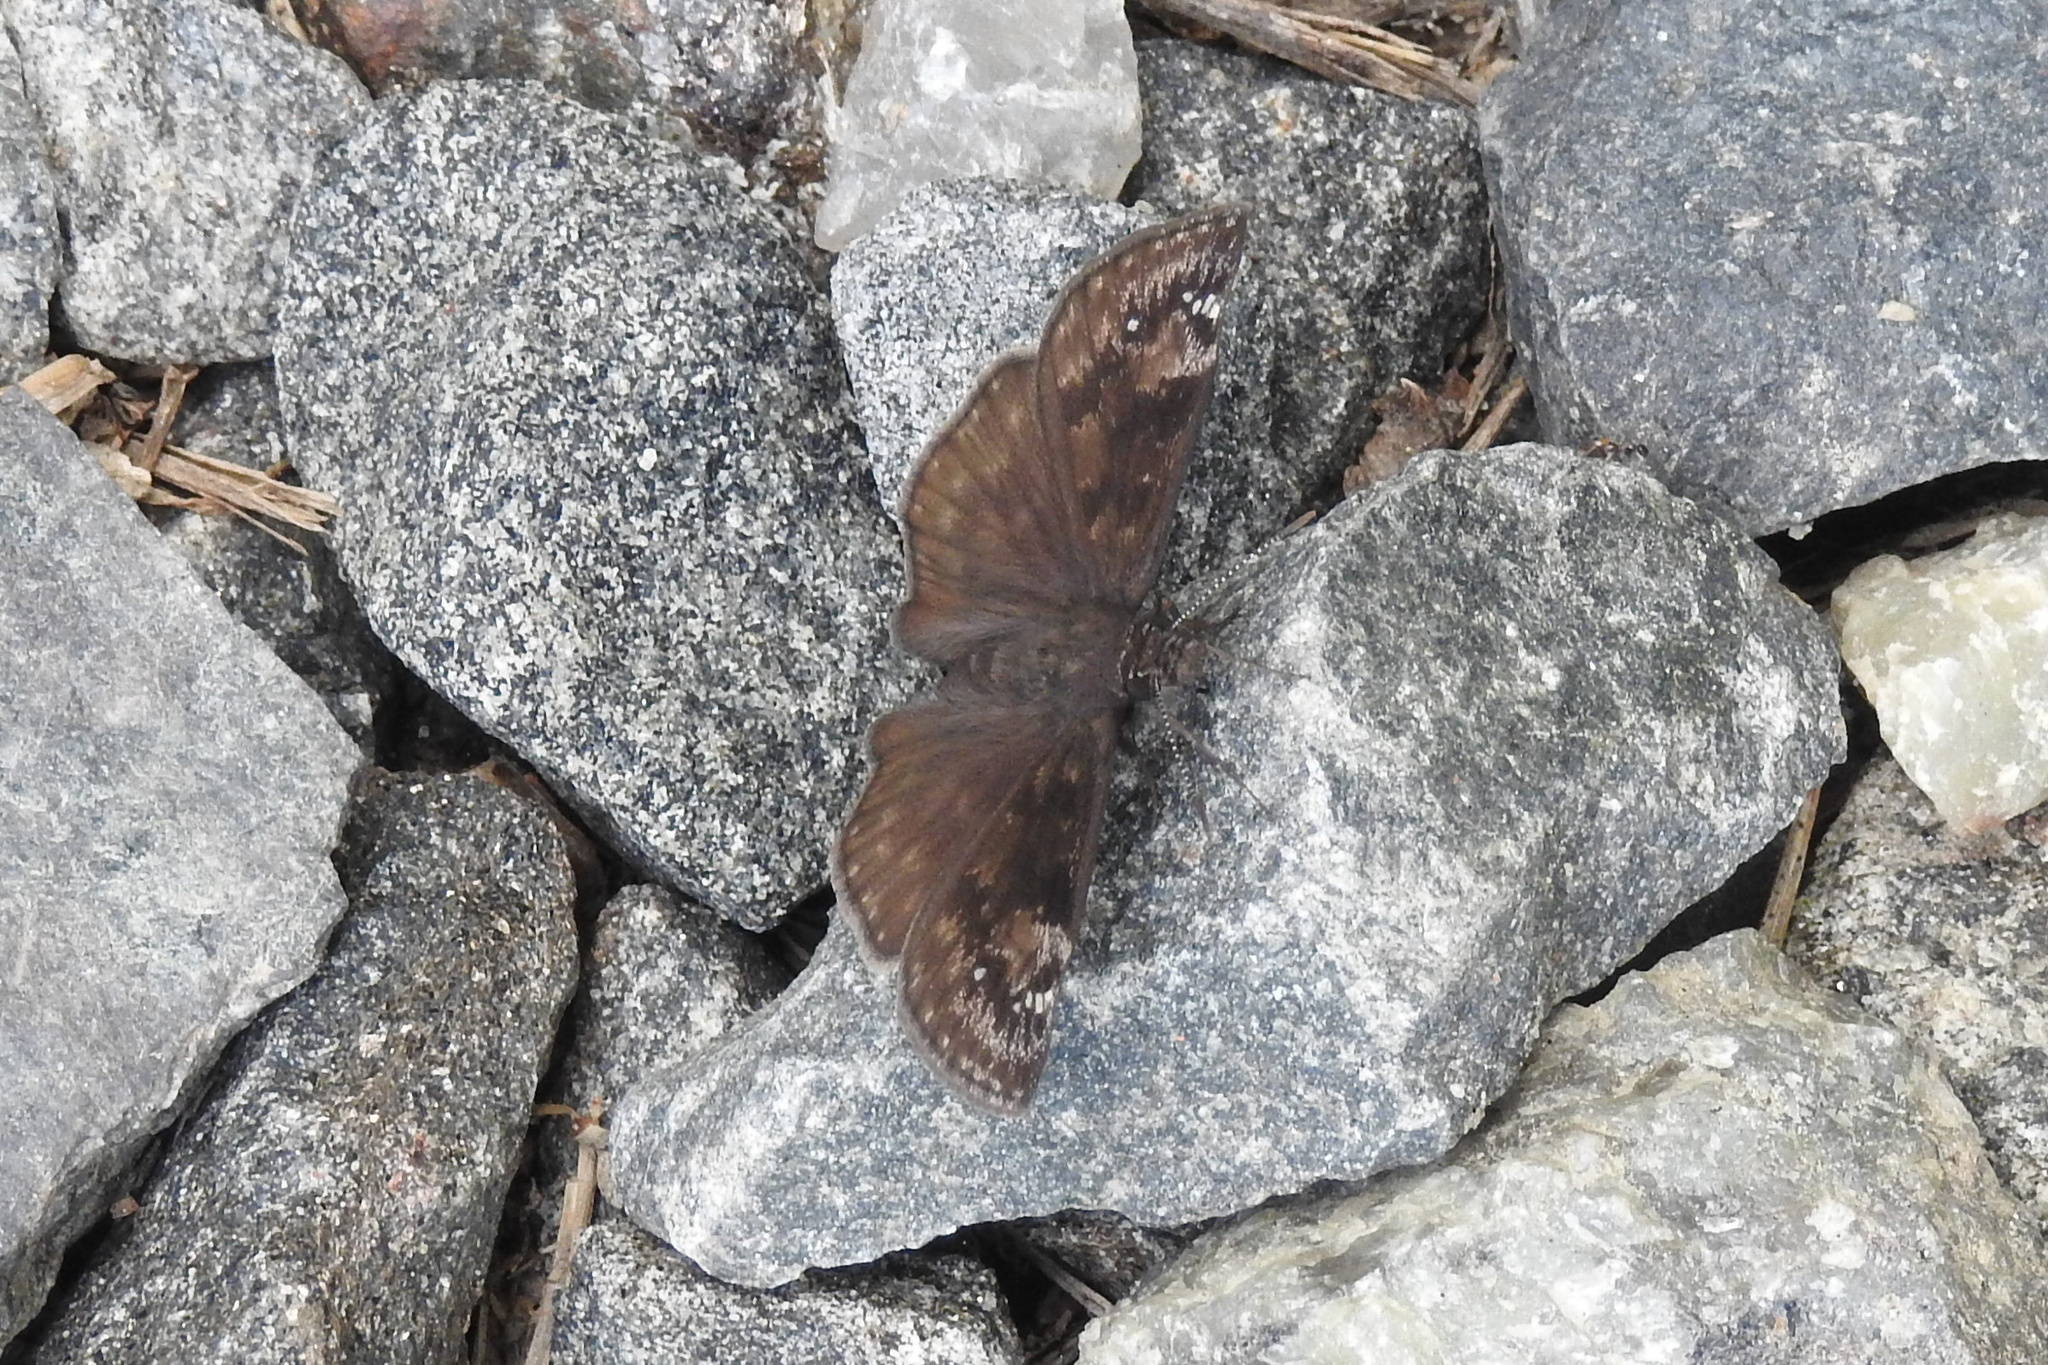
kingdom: Animalia
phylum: Arthropoda
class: Insecta
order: Lepidoptera
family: Hesperiidae
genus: Erynnis
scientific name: Erynnis baptisiae
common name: Wild indigo duskywing
